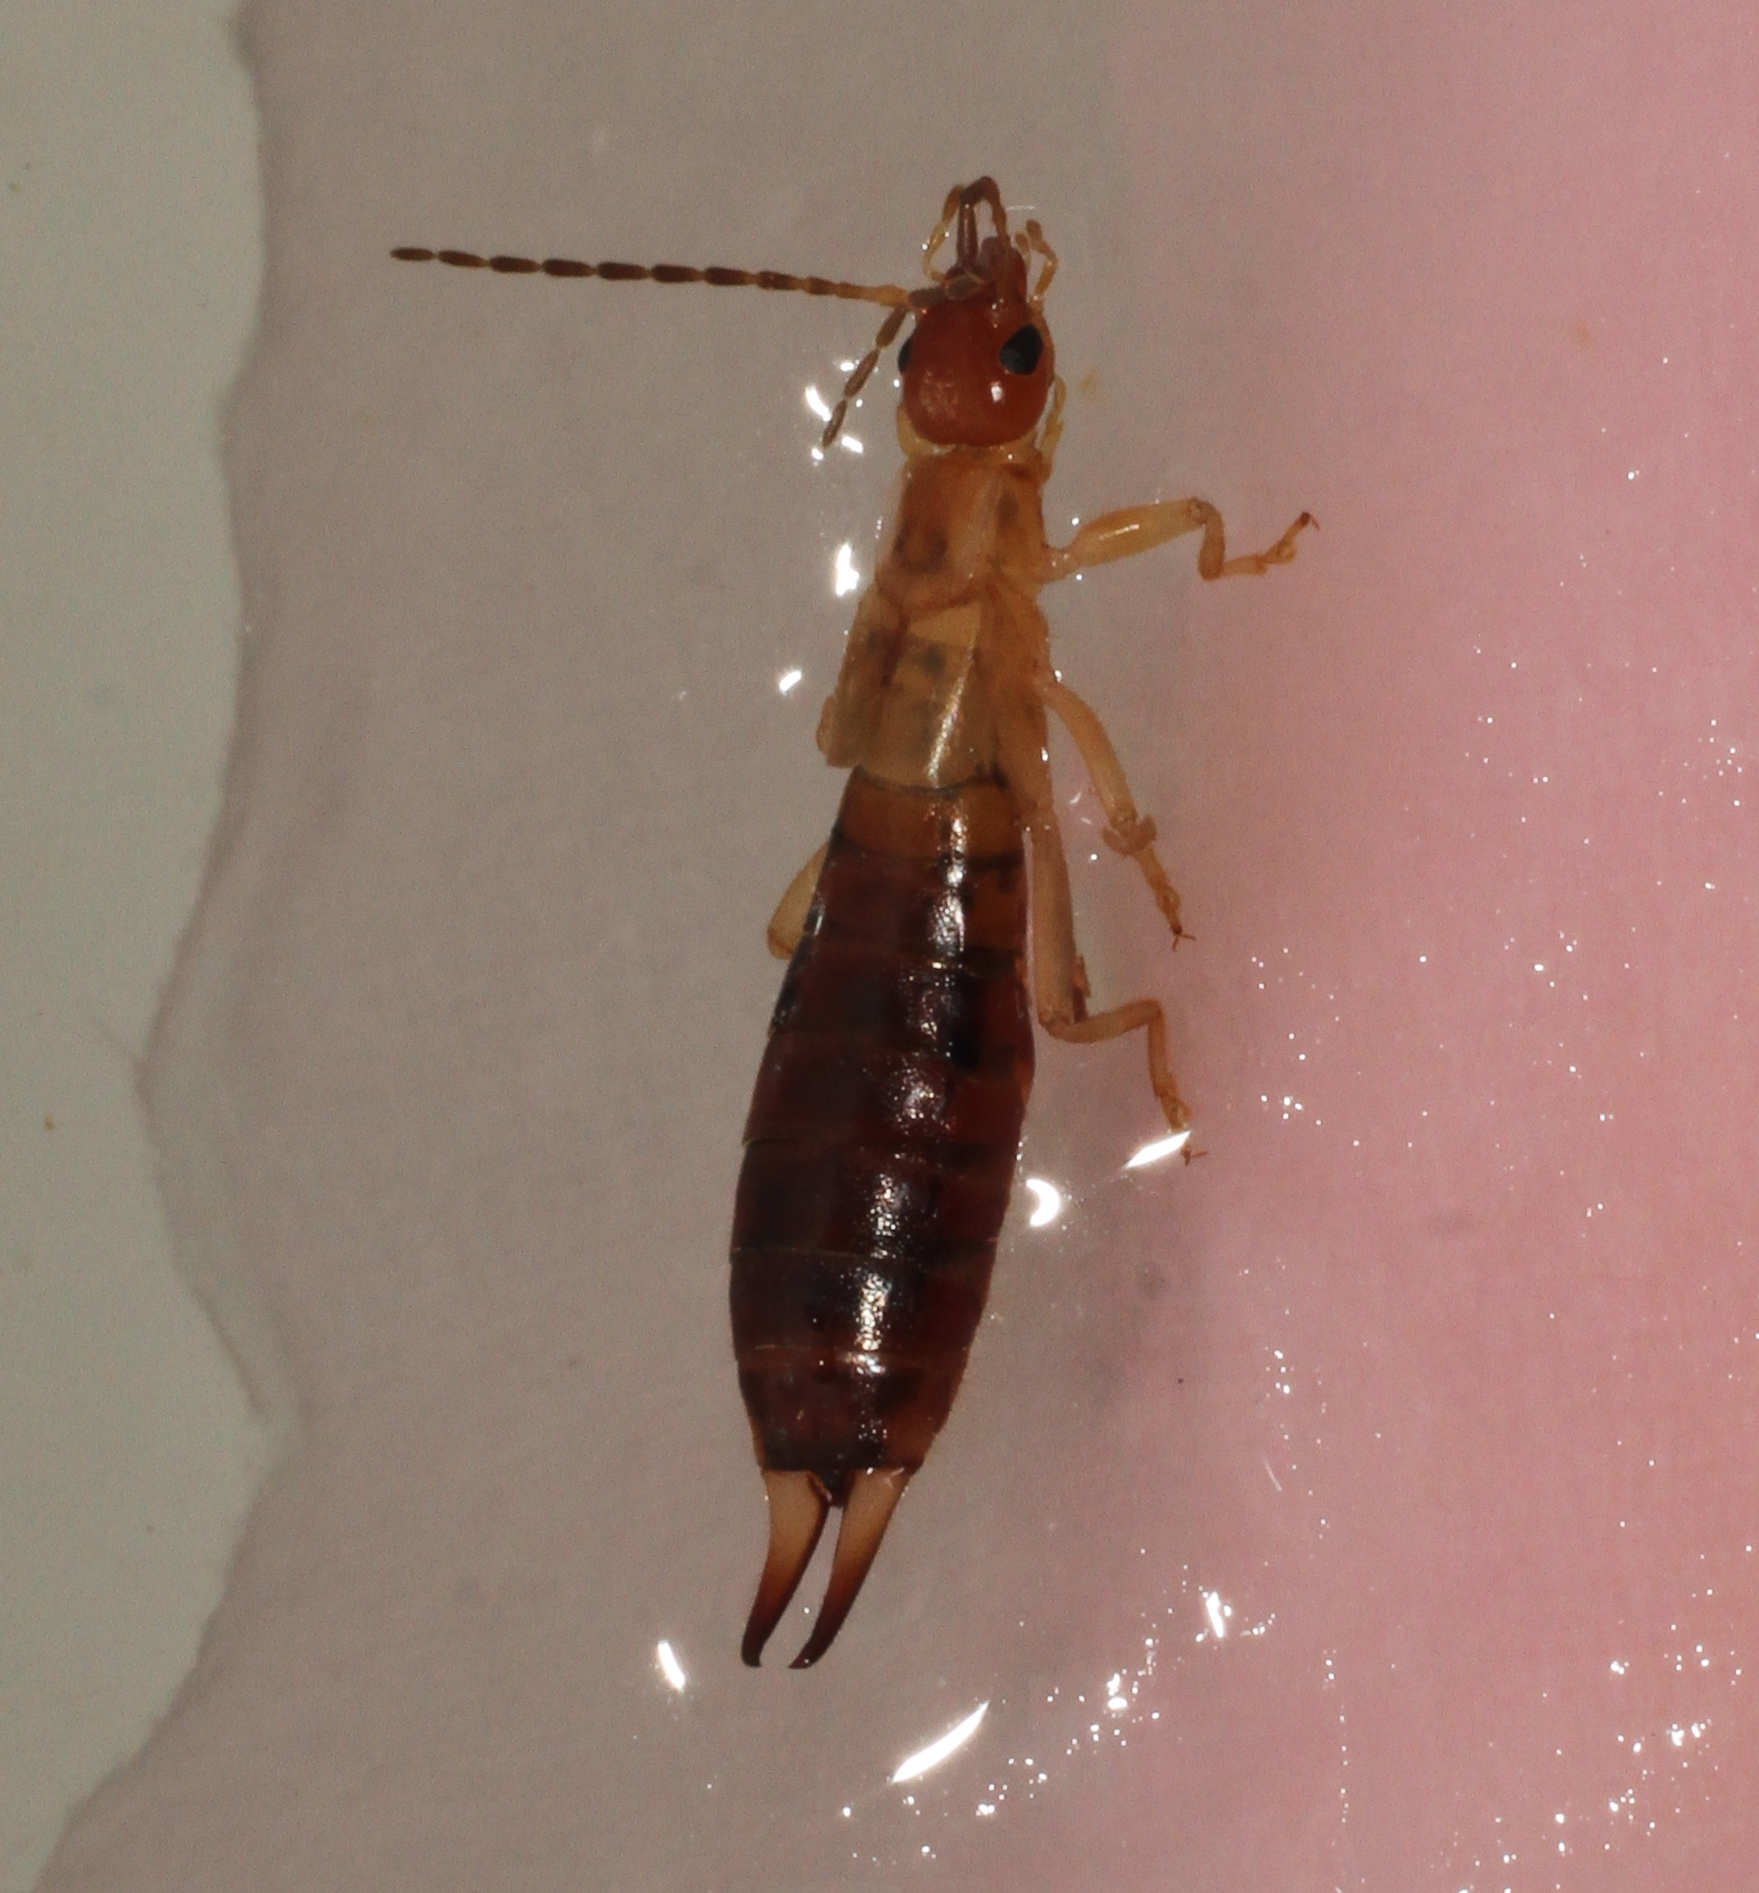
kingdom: Animalia
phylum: Arthropoda
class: Insecta
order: Dermaptera
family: Forficulidae
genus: Apterygida
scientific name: Apterygida albipennis
